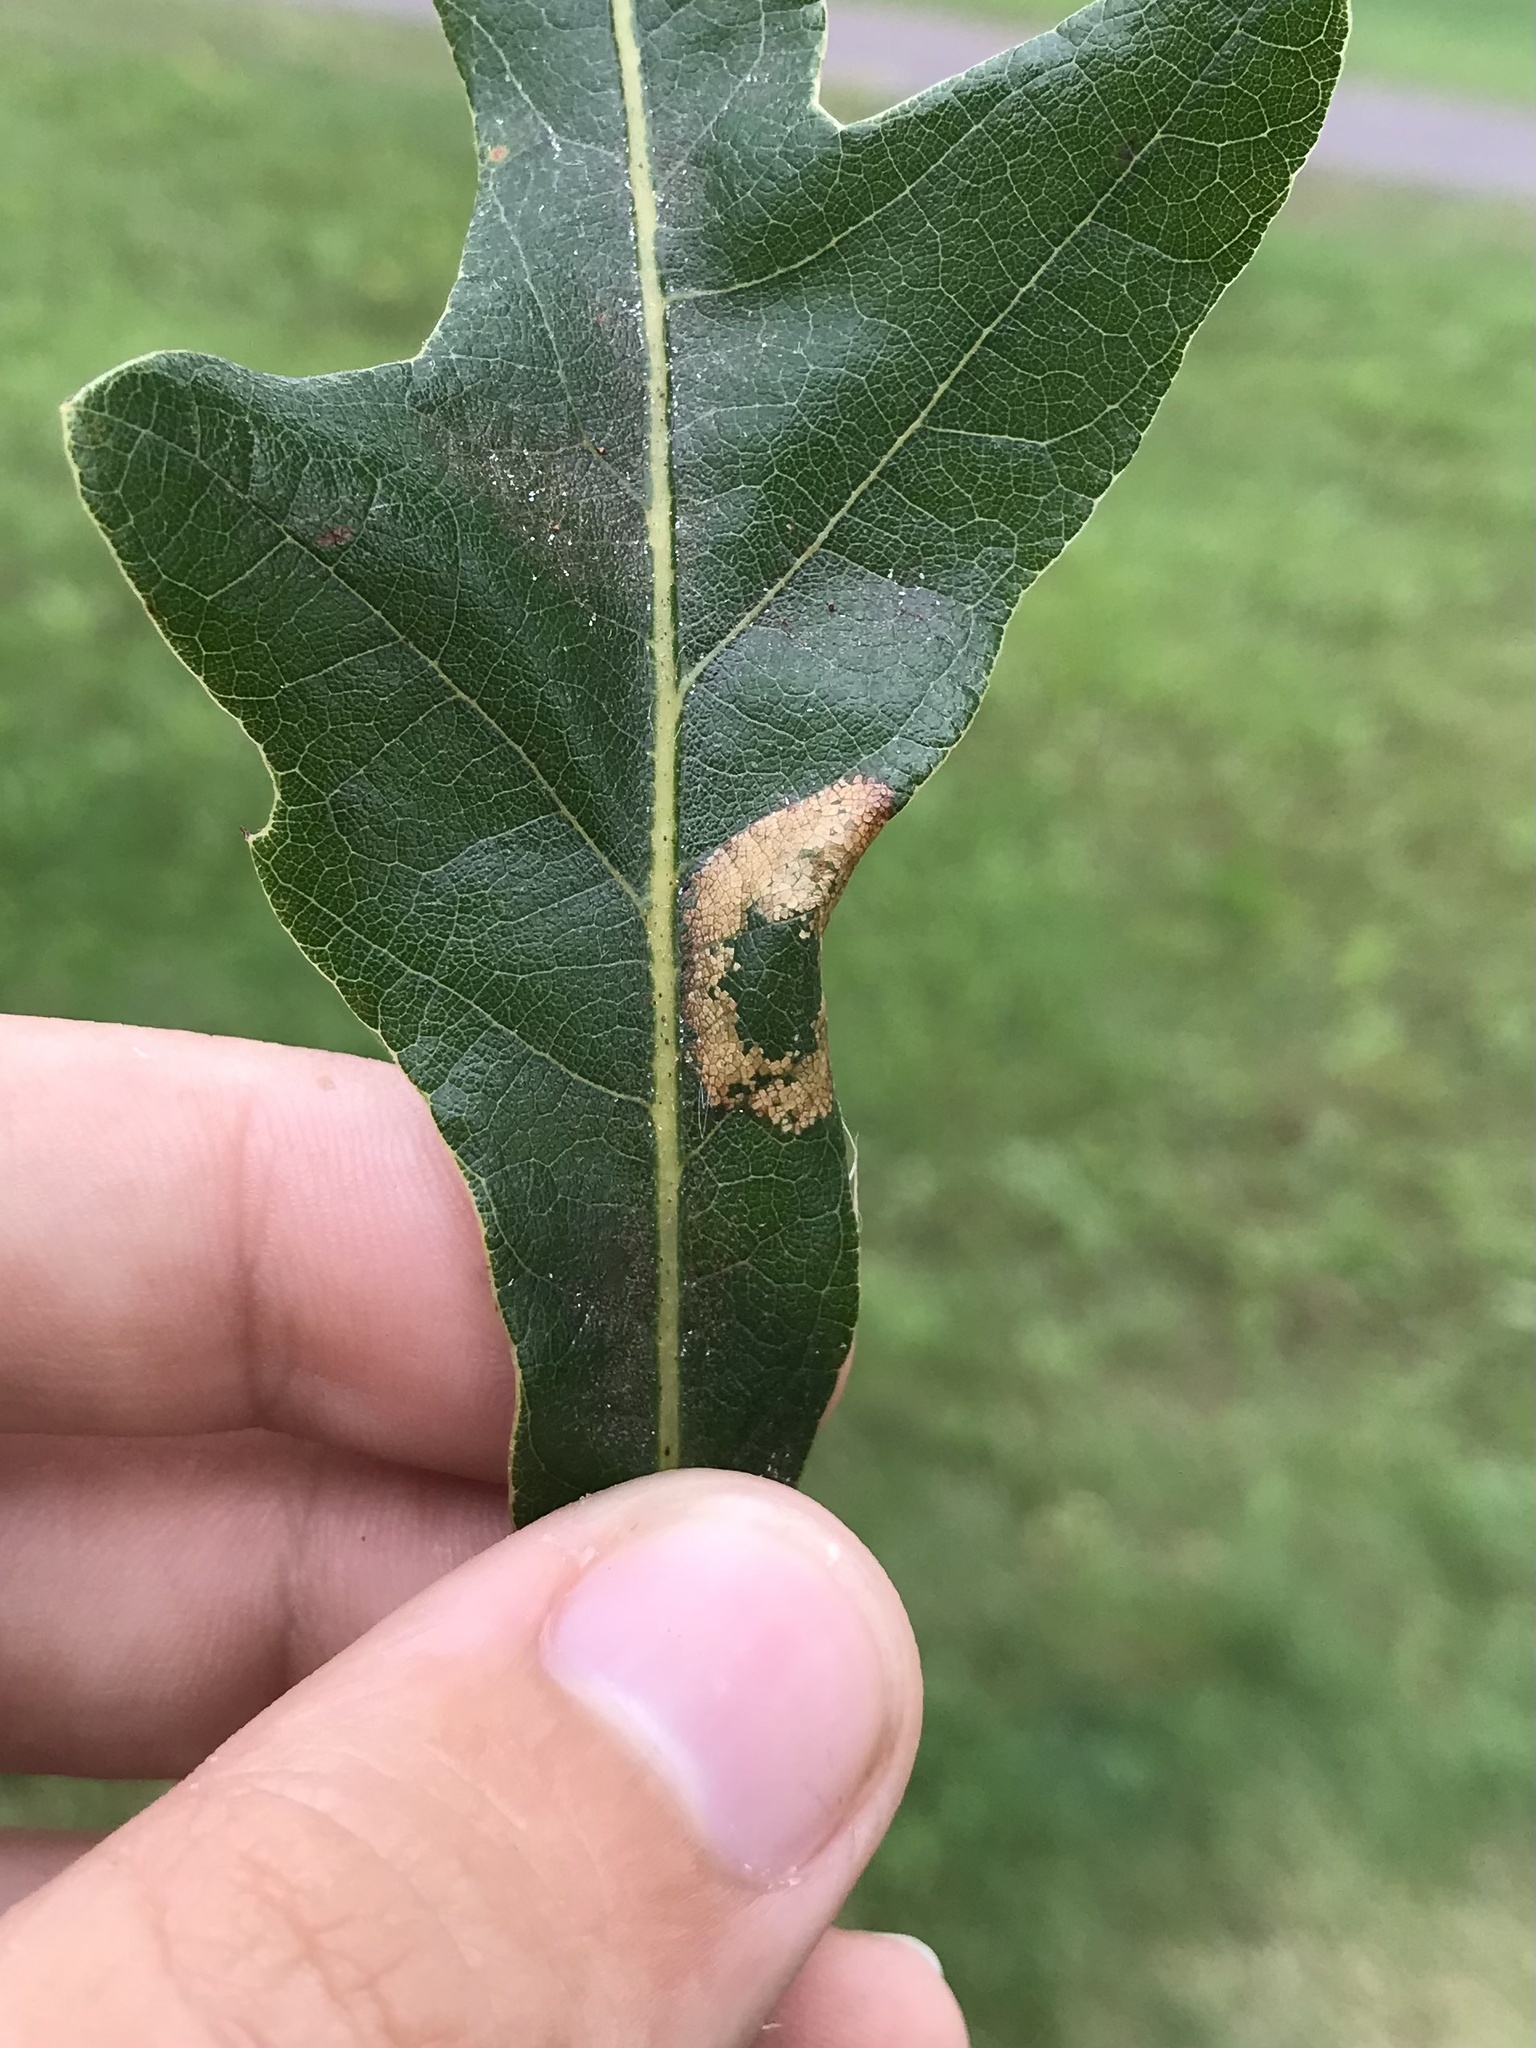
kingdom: Animalia
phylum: Arthropoda
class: Insecta
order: Lepidoptera
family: Gracillariidae
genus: Phyllonorycter
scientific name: Phyllonorycter fitchella
